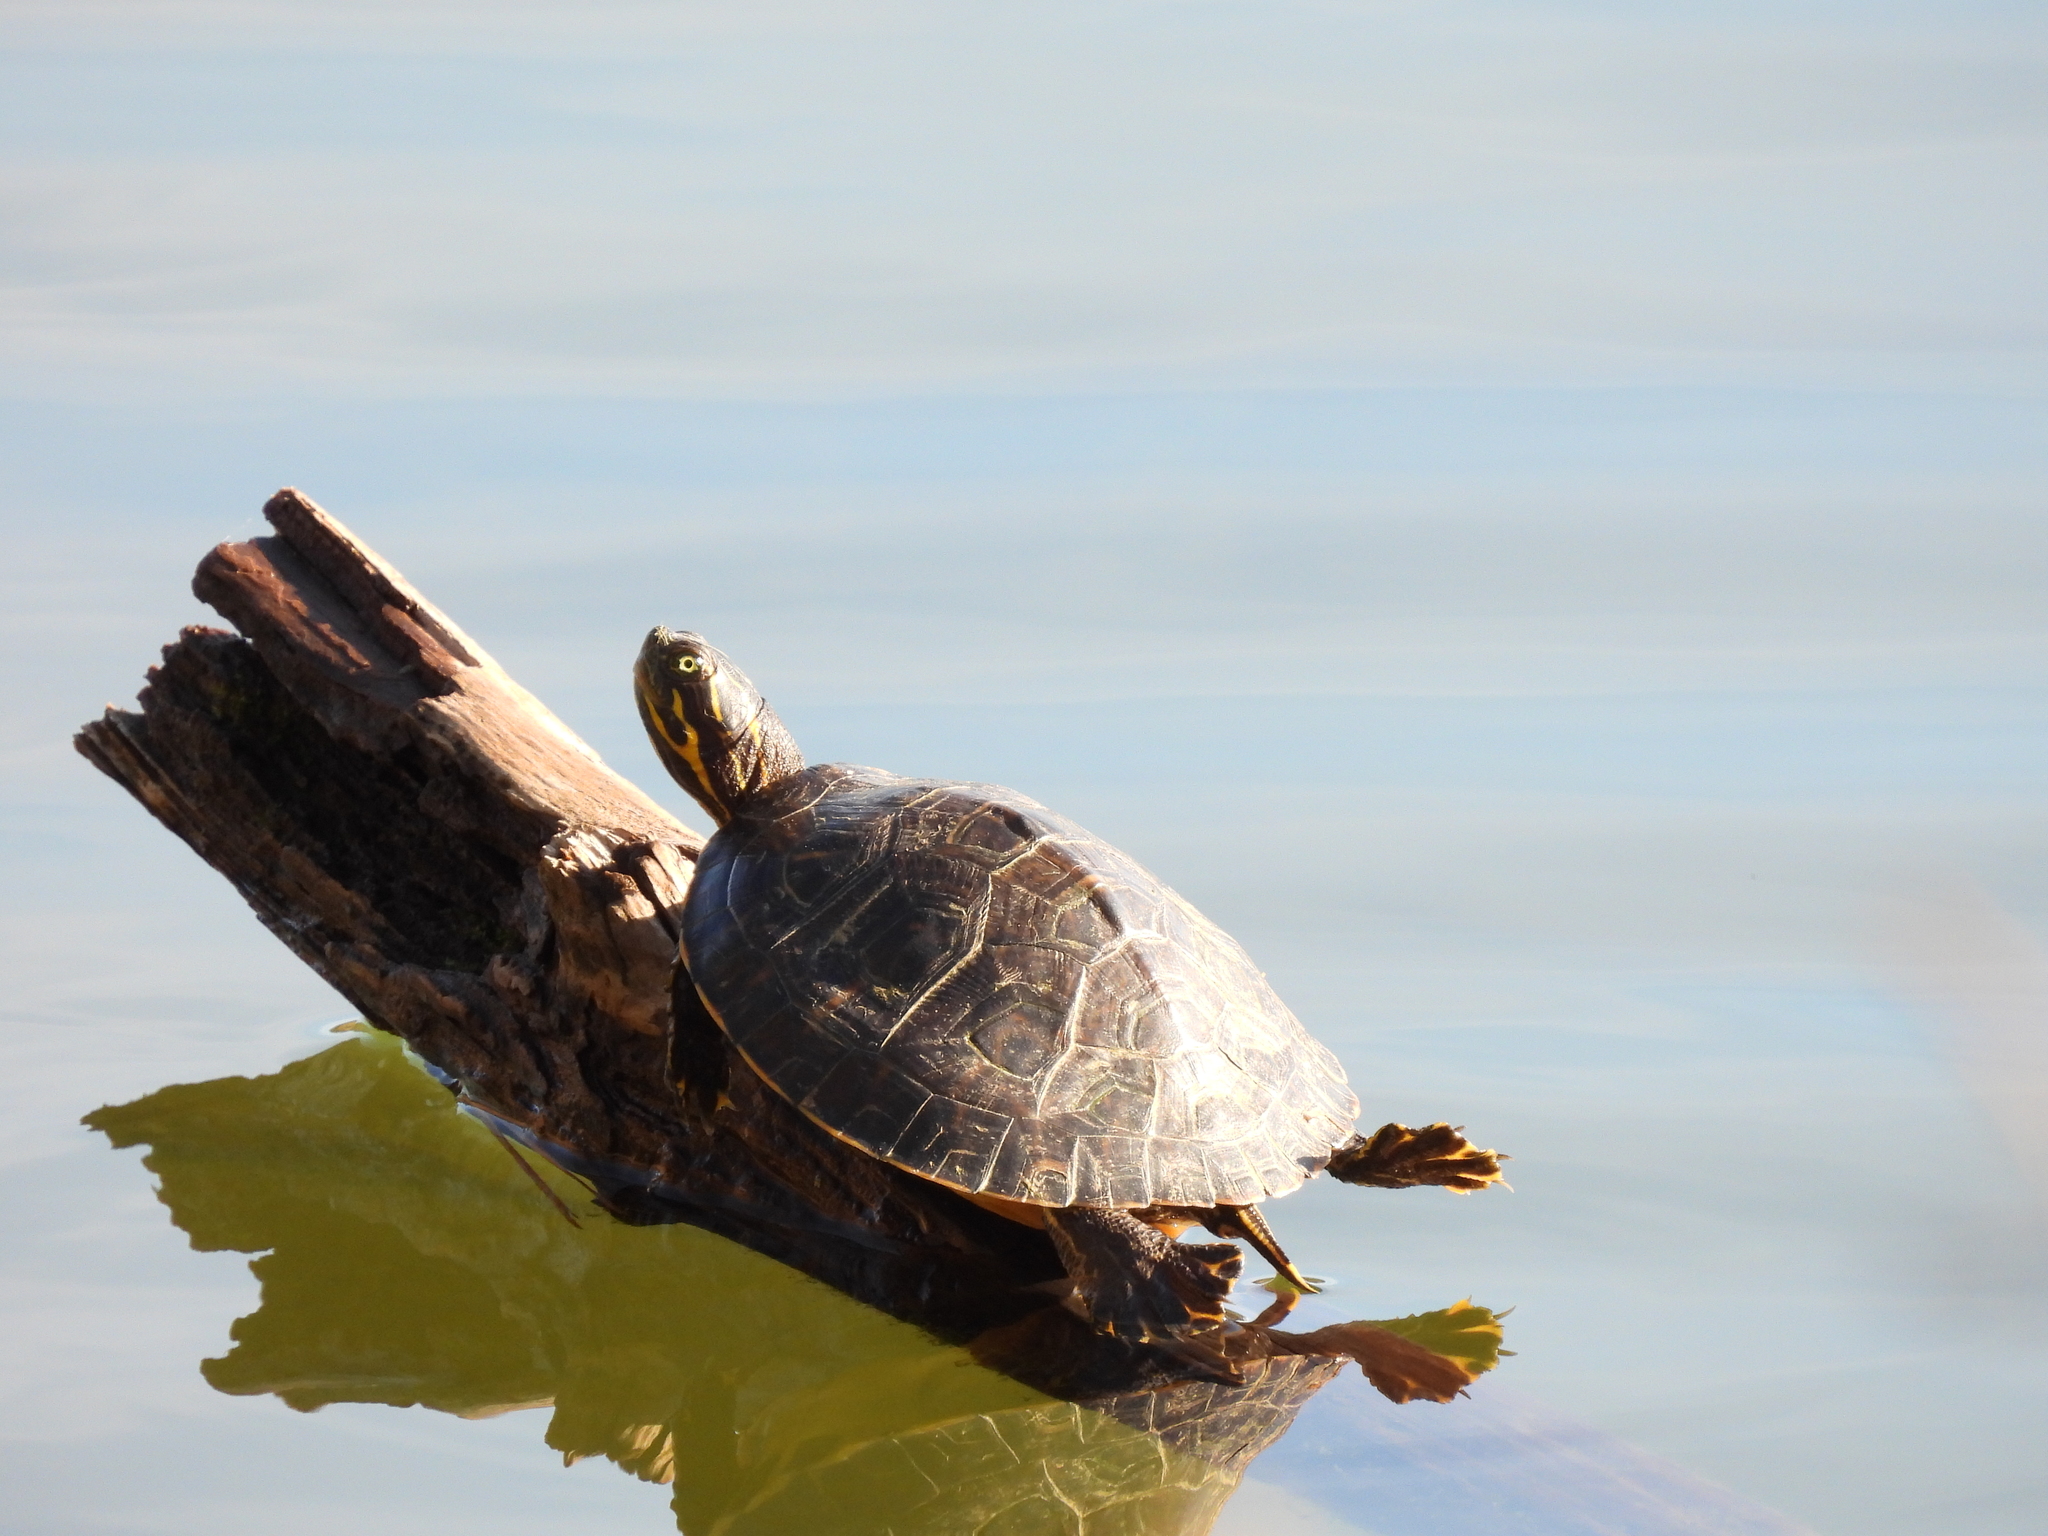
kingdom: Animalia
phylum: Chordata
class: Testudines
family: Emydidae
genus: Pseudemys
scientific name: Pseudemys concinna
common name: Eastern river cooter
